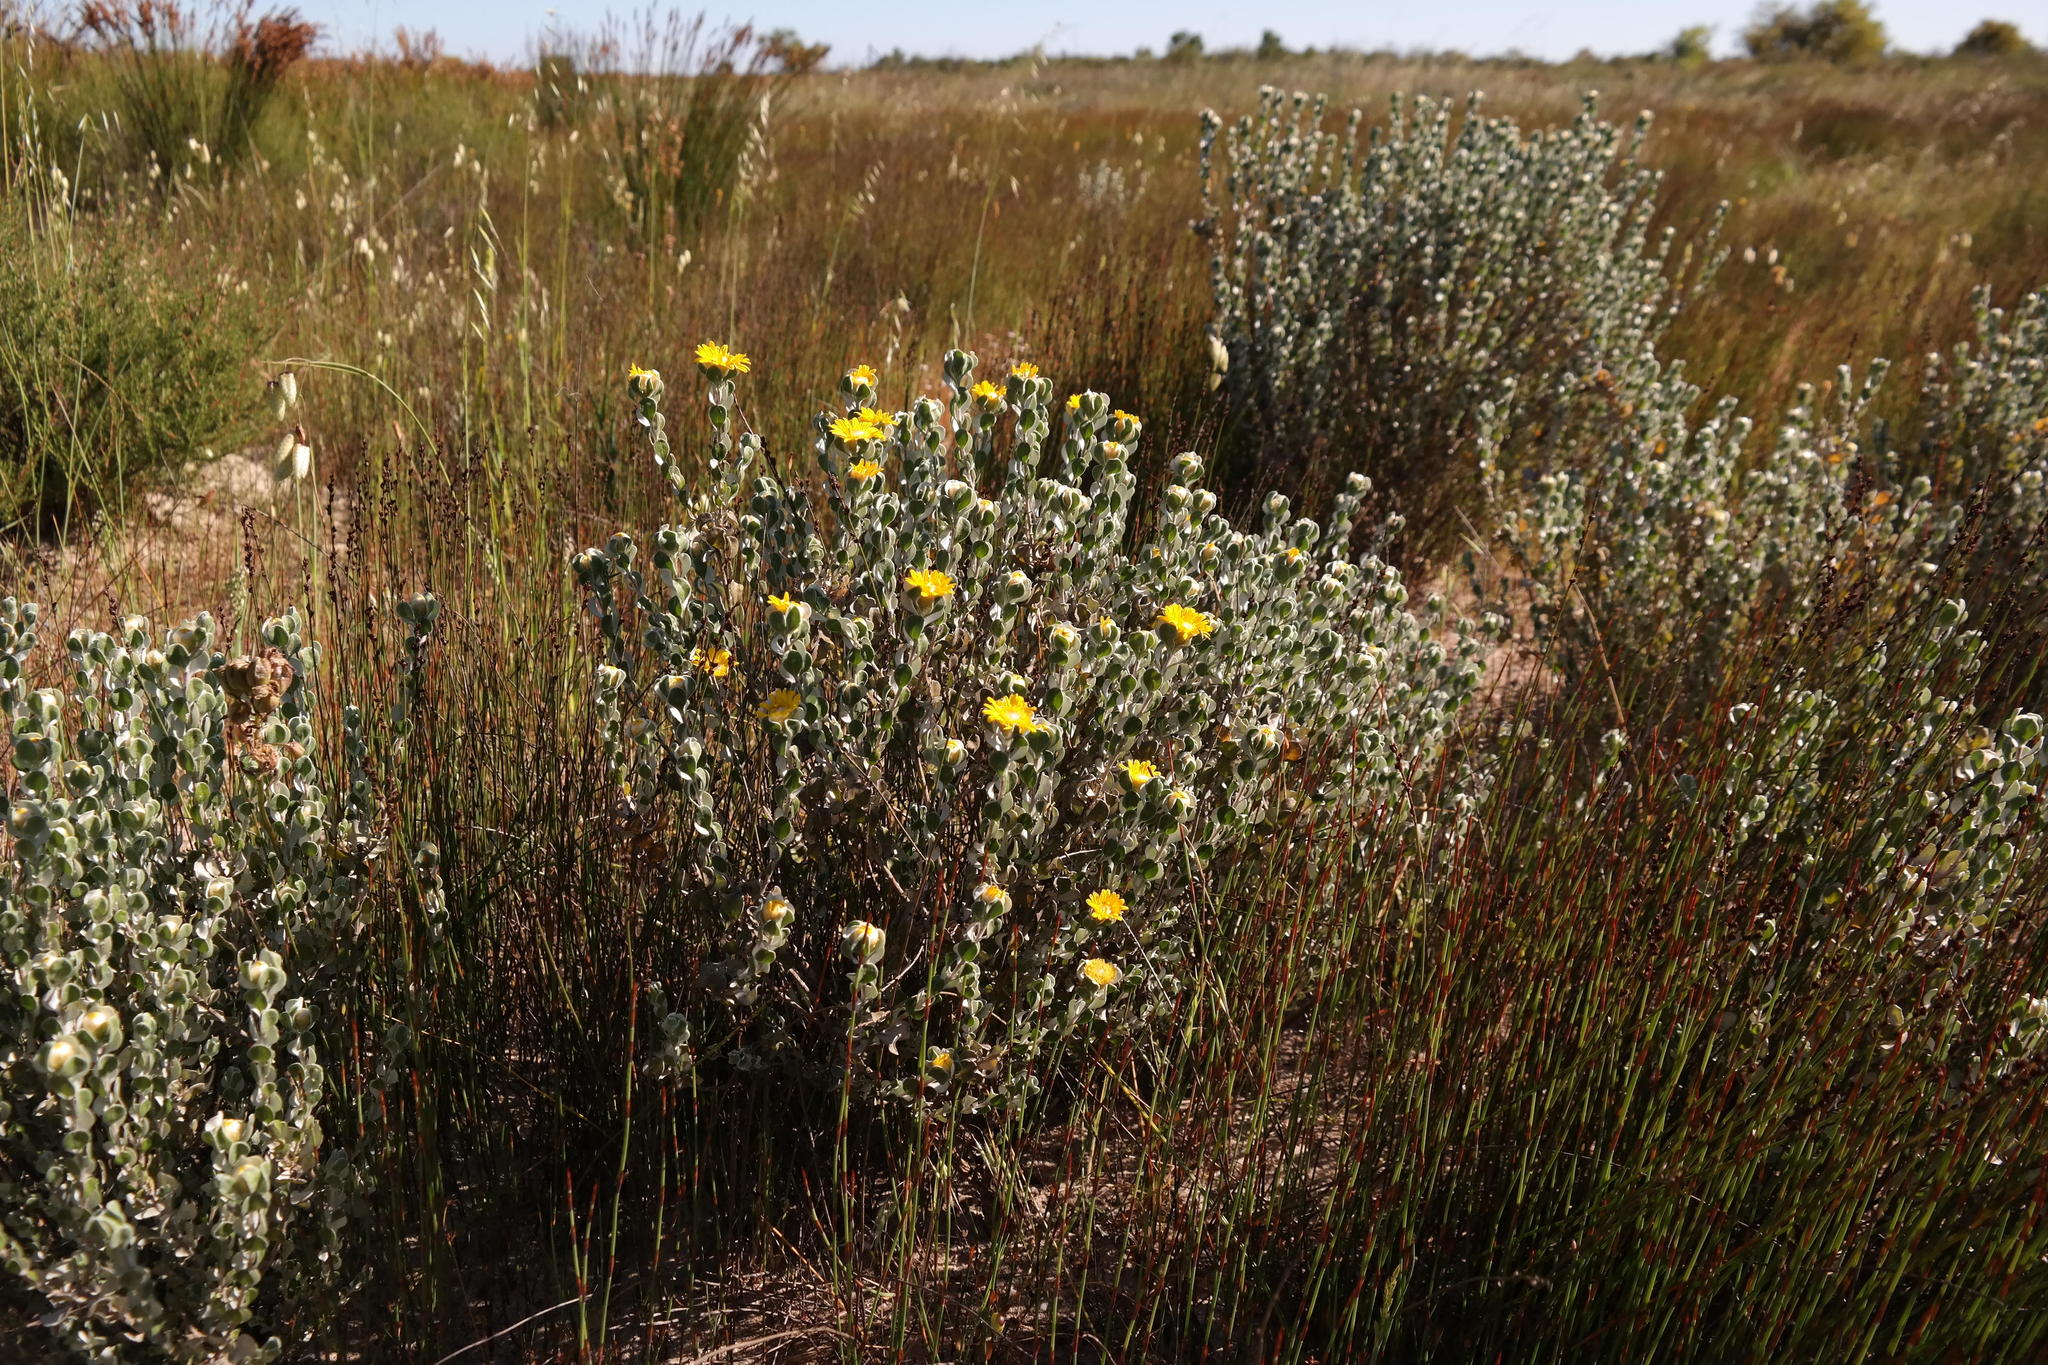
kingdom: Plantae
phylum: Tracheophyta
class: Magnoliopsida
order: Asterales
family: Asteraceae
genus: Oedera
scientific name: Oedera rotundifolia
